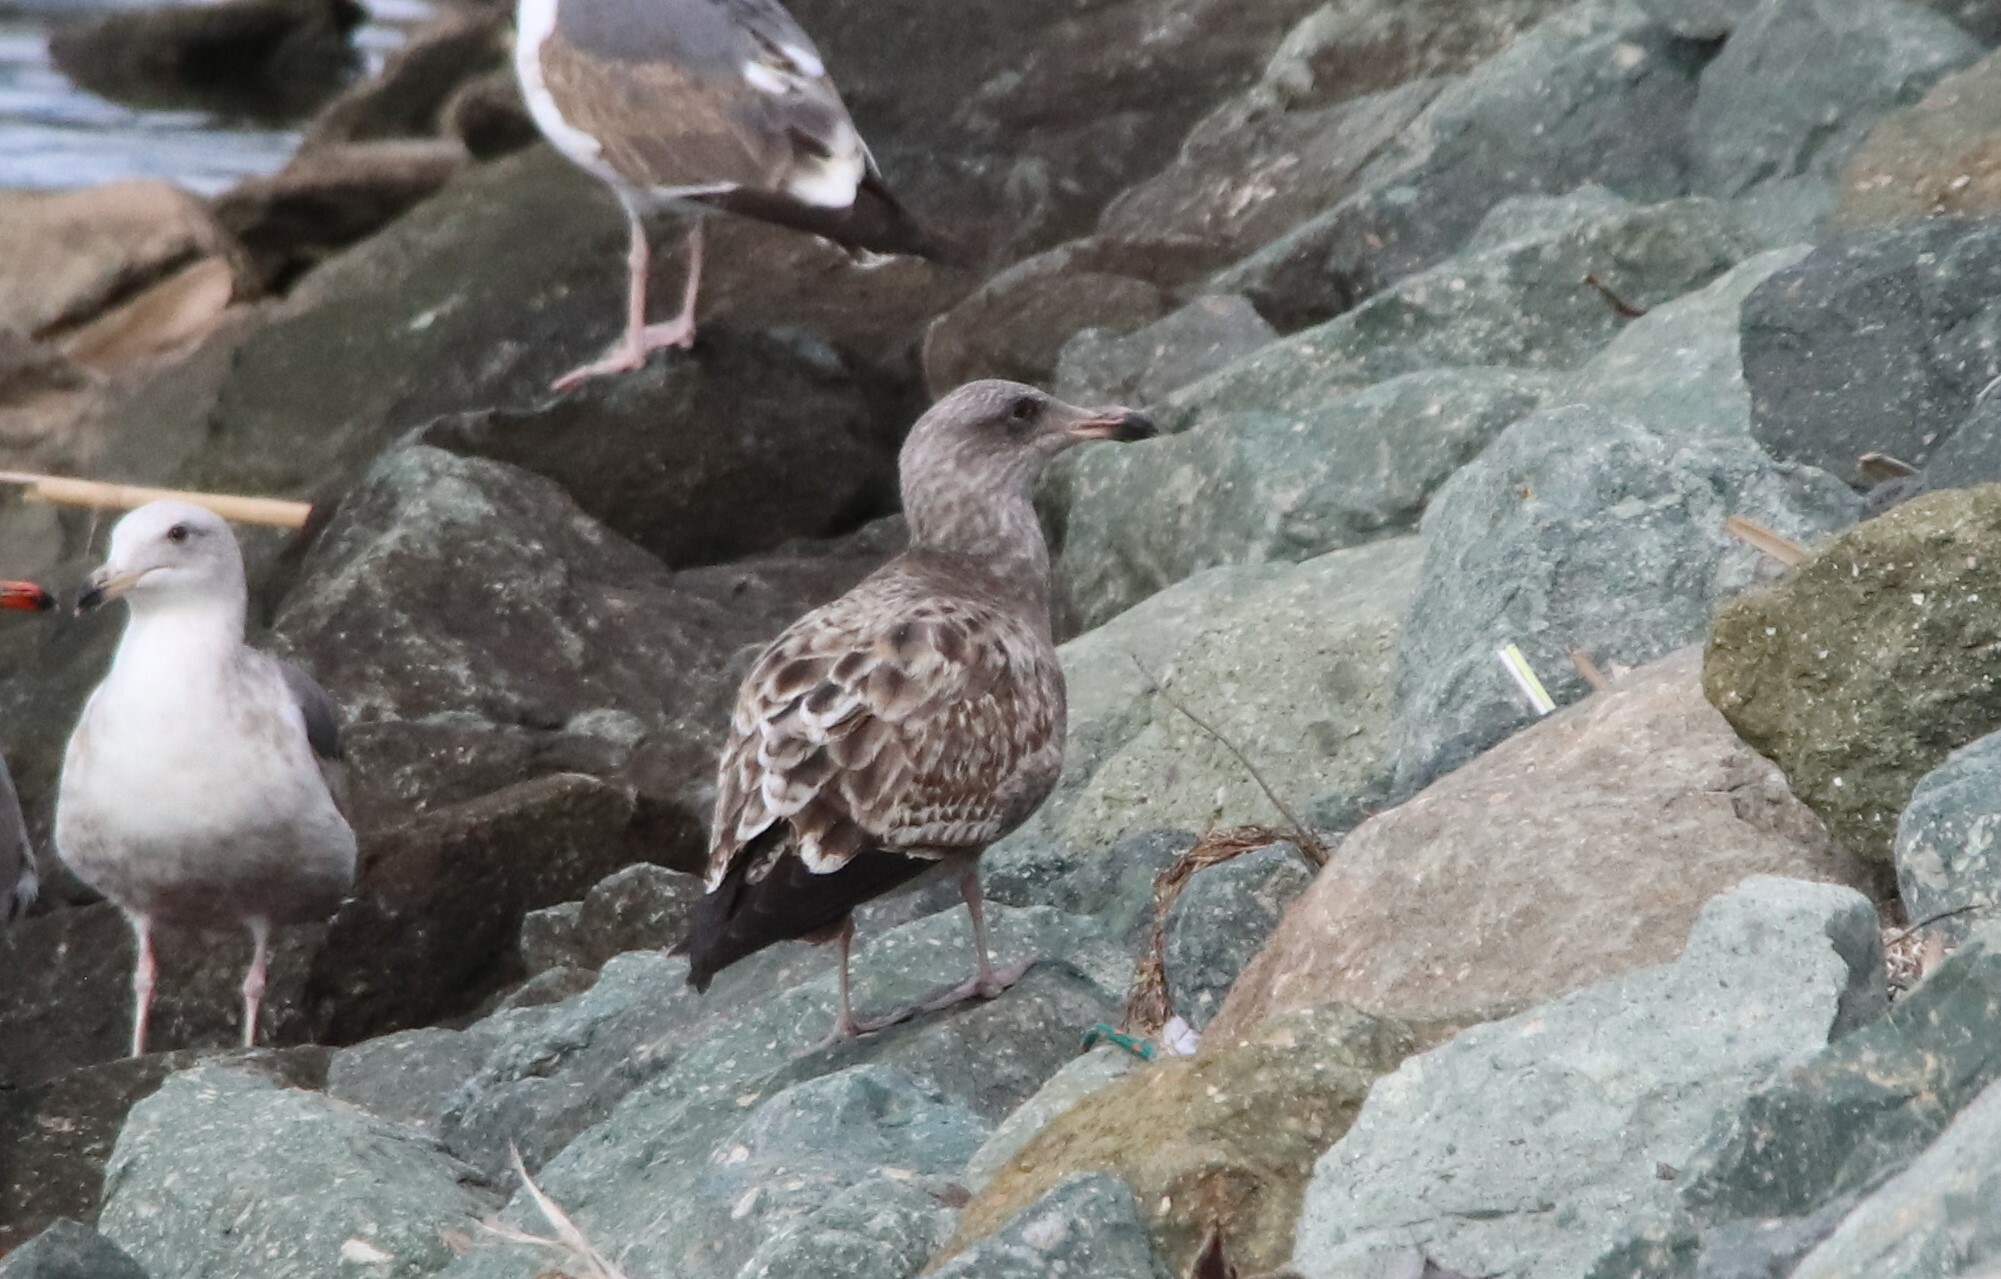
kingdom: Animalia
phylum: Chordata
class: Aves
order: Charadriiformes
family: Laridae
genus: Larus
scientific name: Larus occidentalis
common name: Western gull
